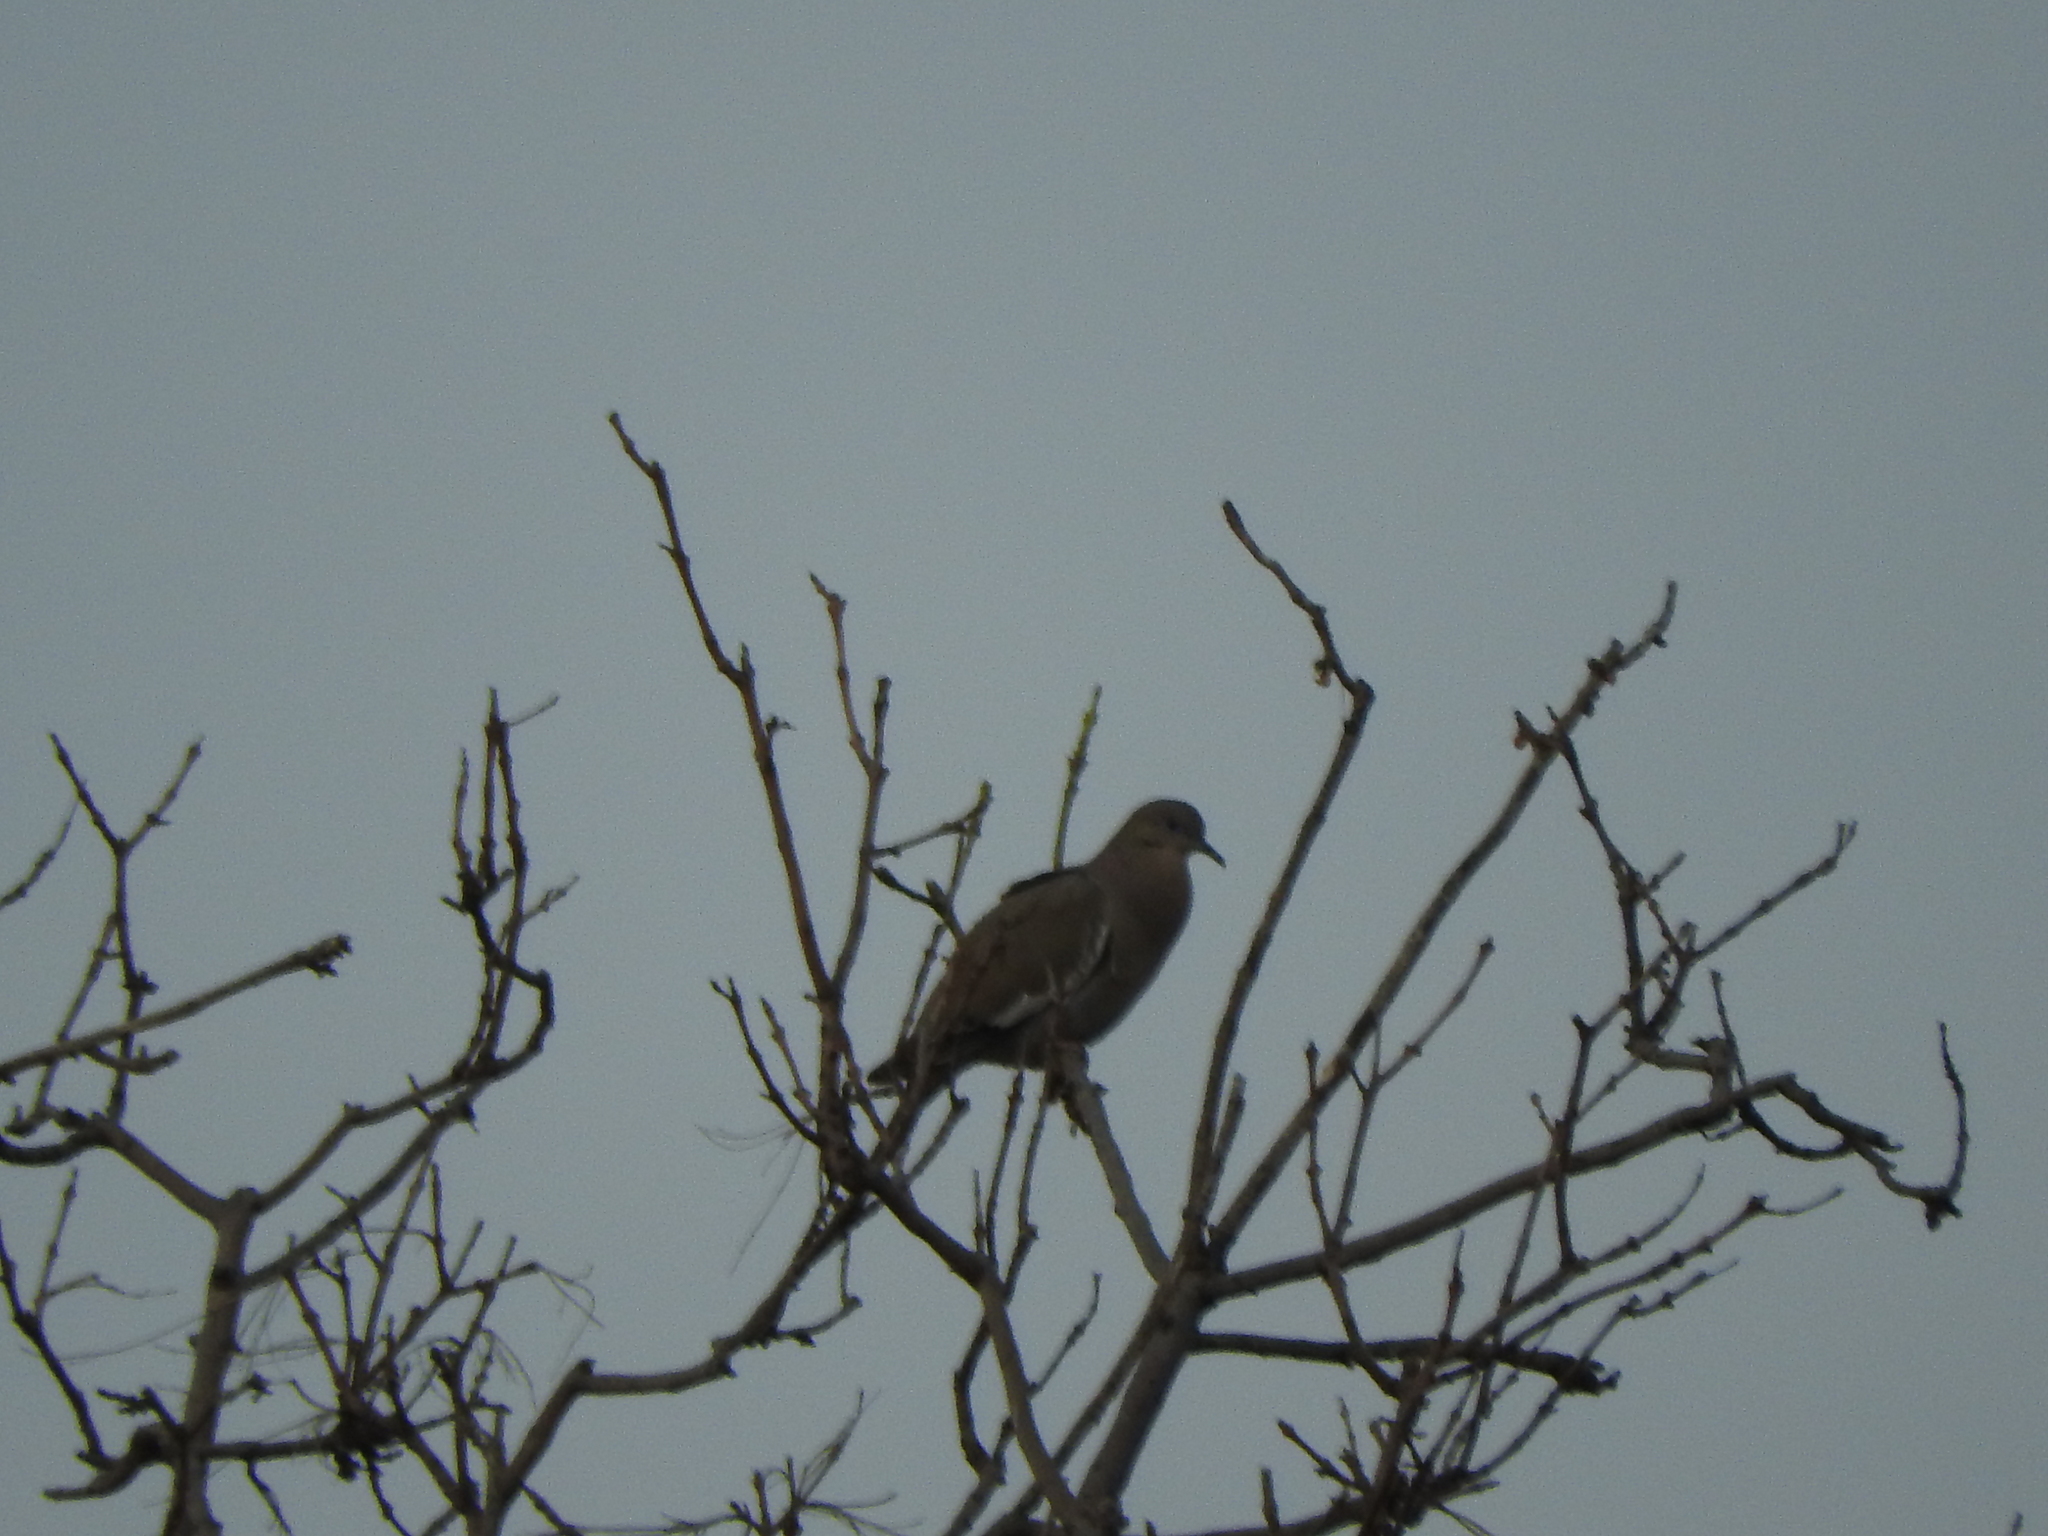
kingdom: Animalia
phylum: Chordata
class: Aves
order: Columbiformes
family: Columbidae
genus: Zenaida
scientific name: Zenaida asiatica
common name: White-winged dove
